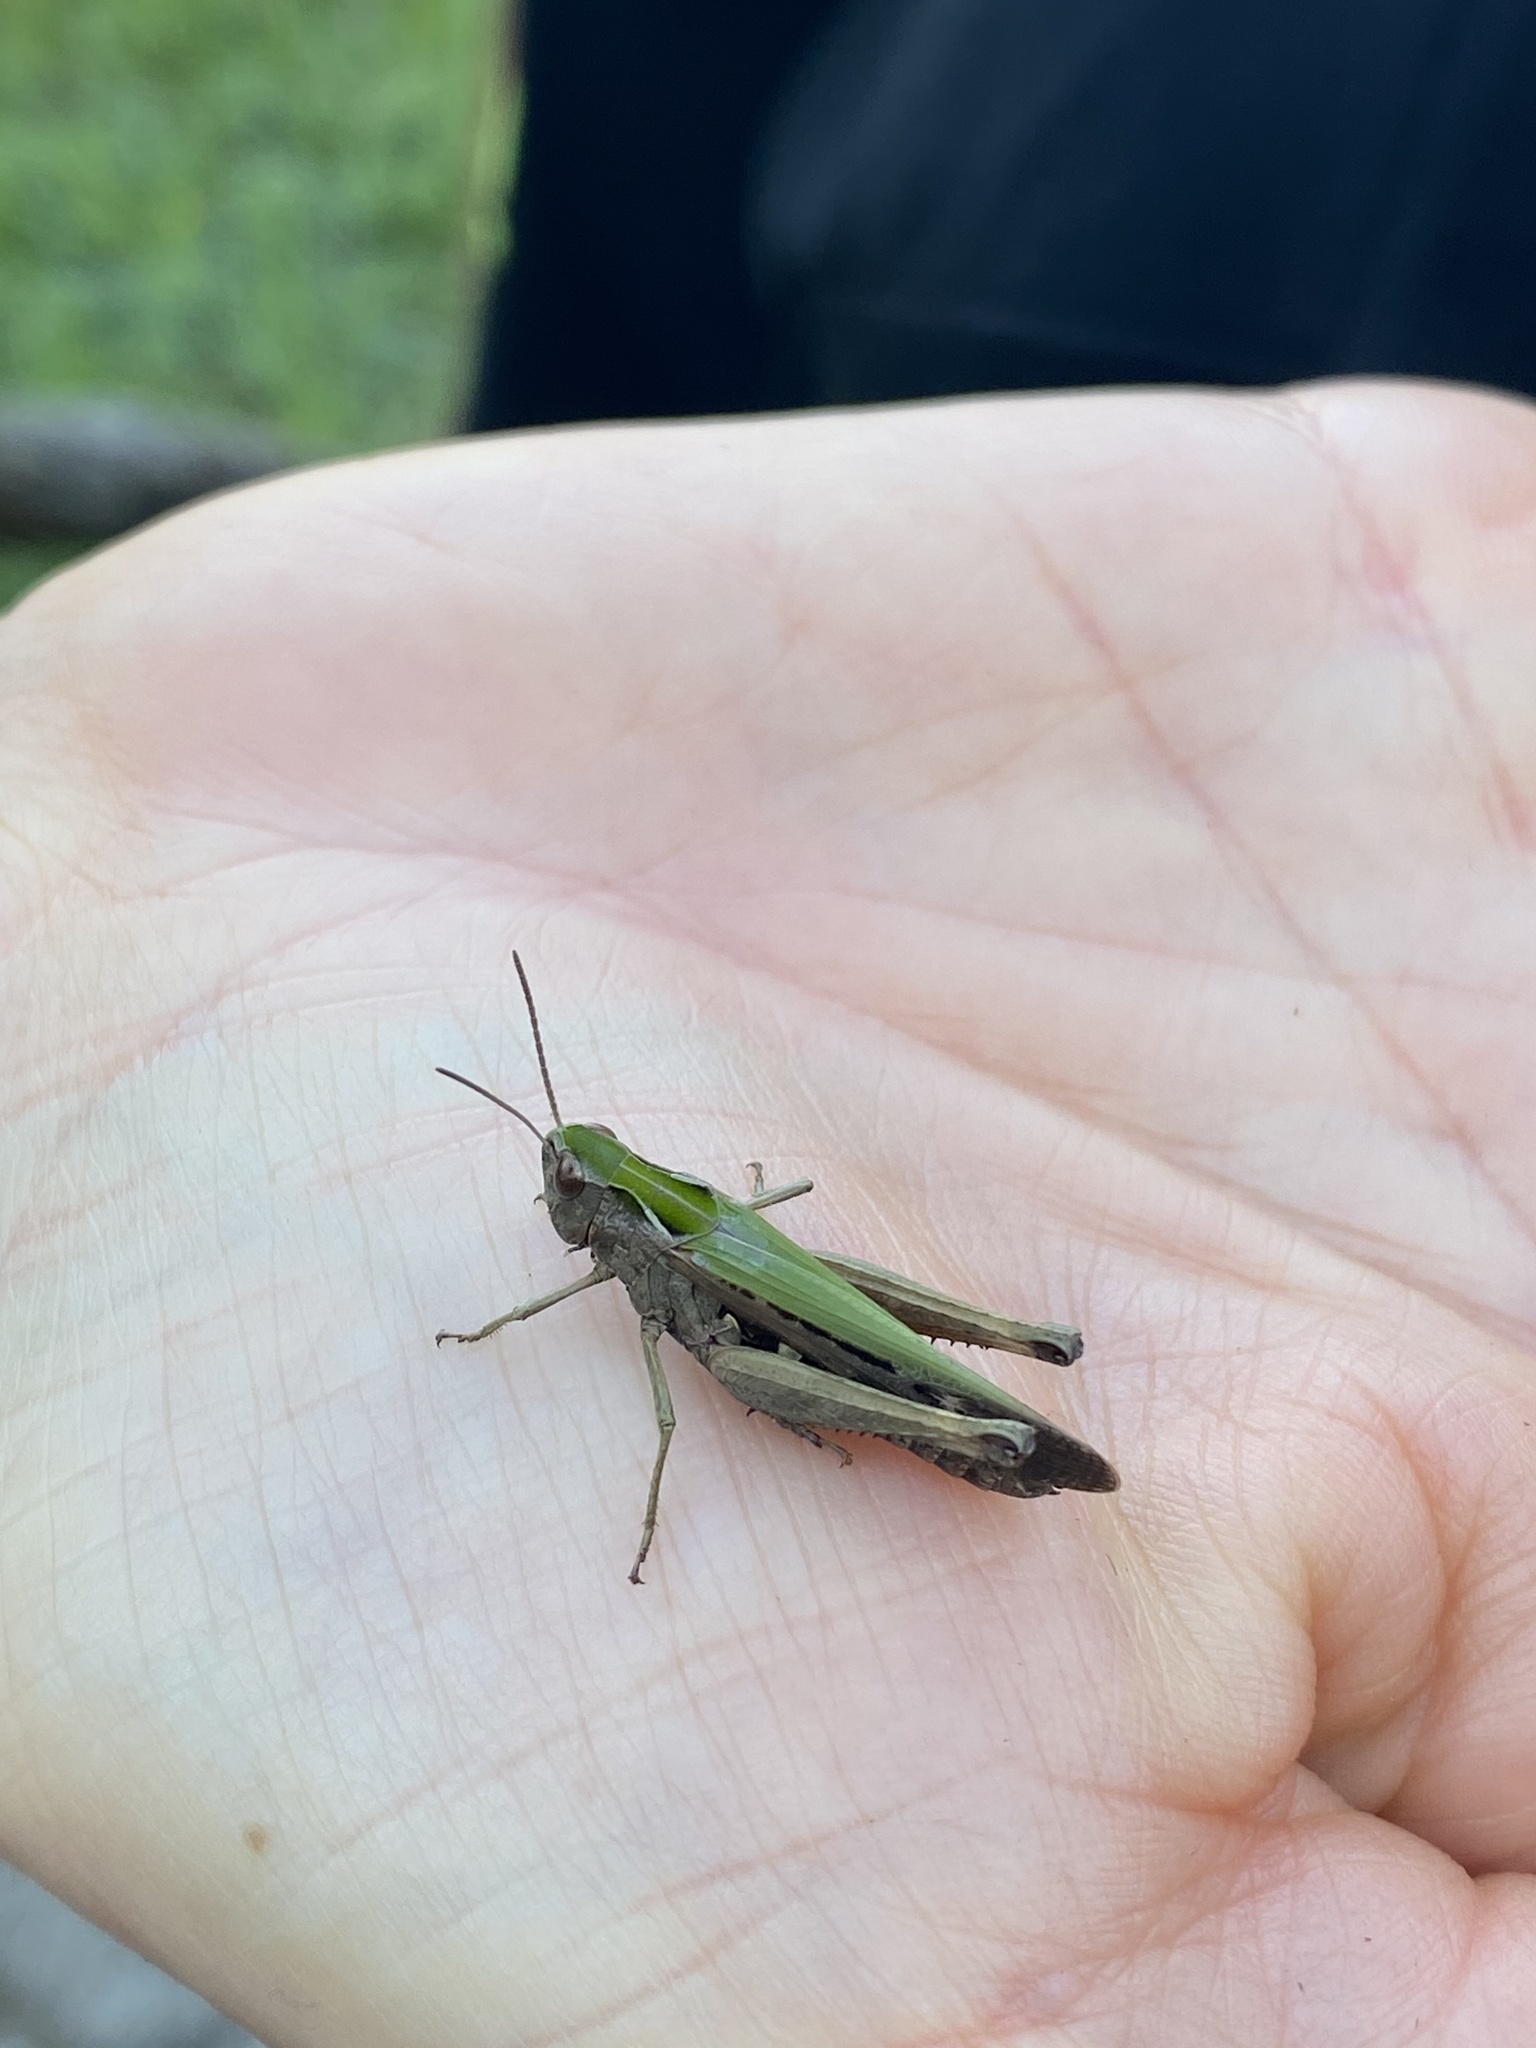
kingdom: Animalia
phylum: Arthropoda
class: Insecta
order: Orthoptera
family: Acrididae
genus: Omocestus
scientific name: Omocestus rufipes
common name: Woodland grasshopper
